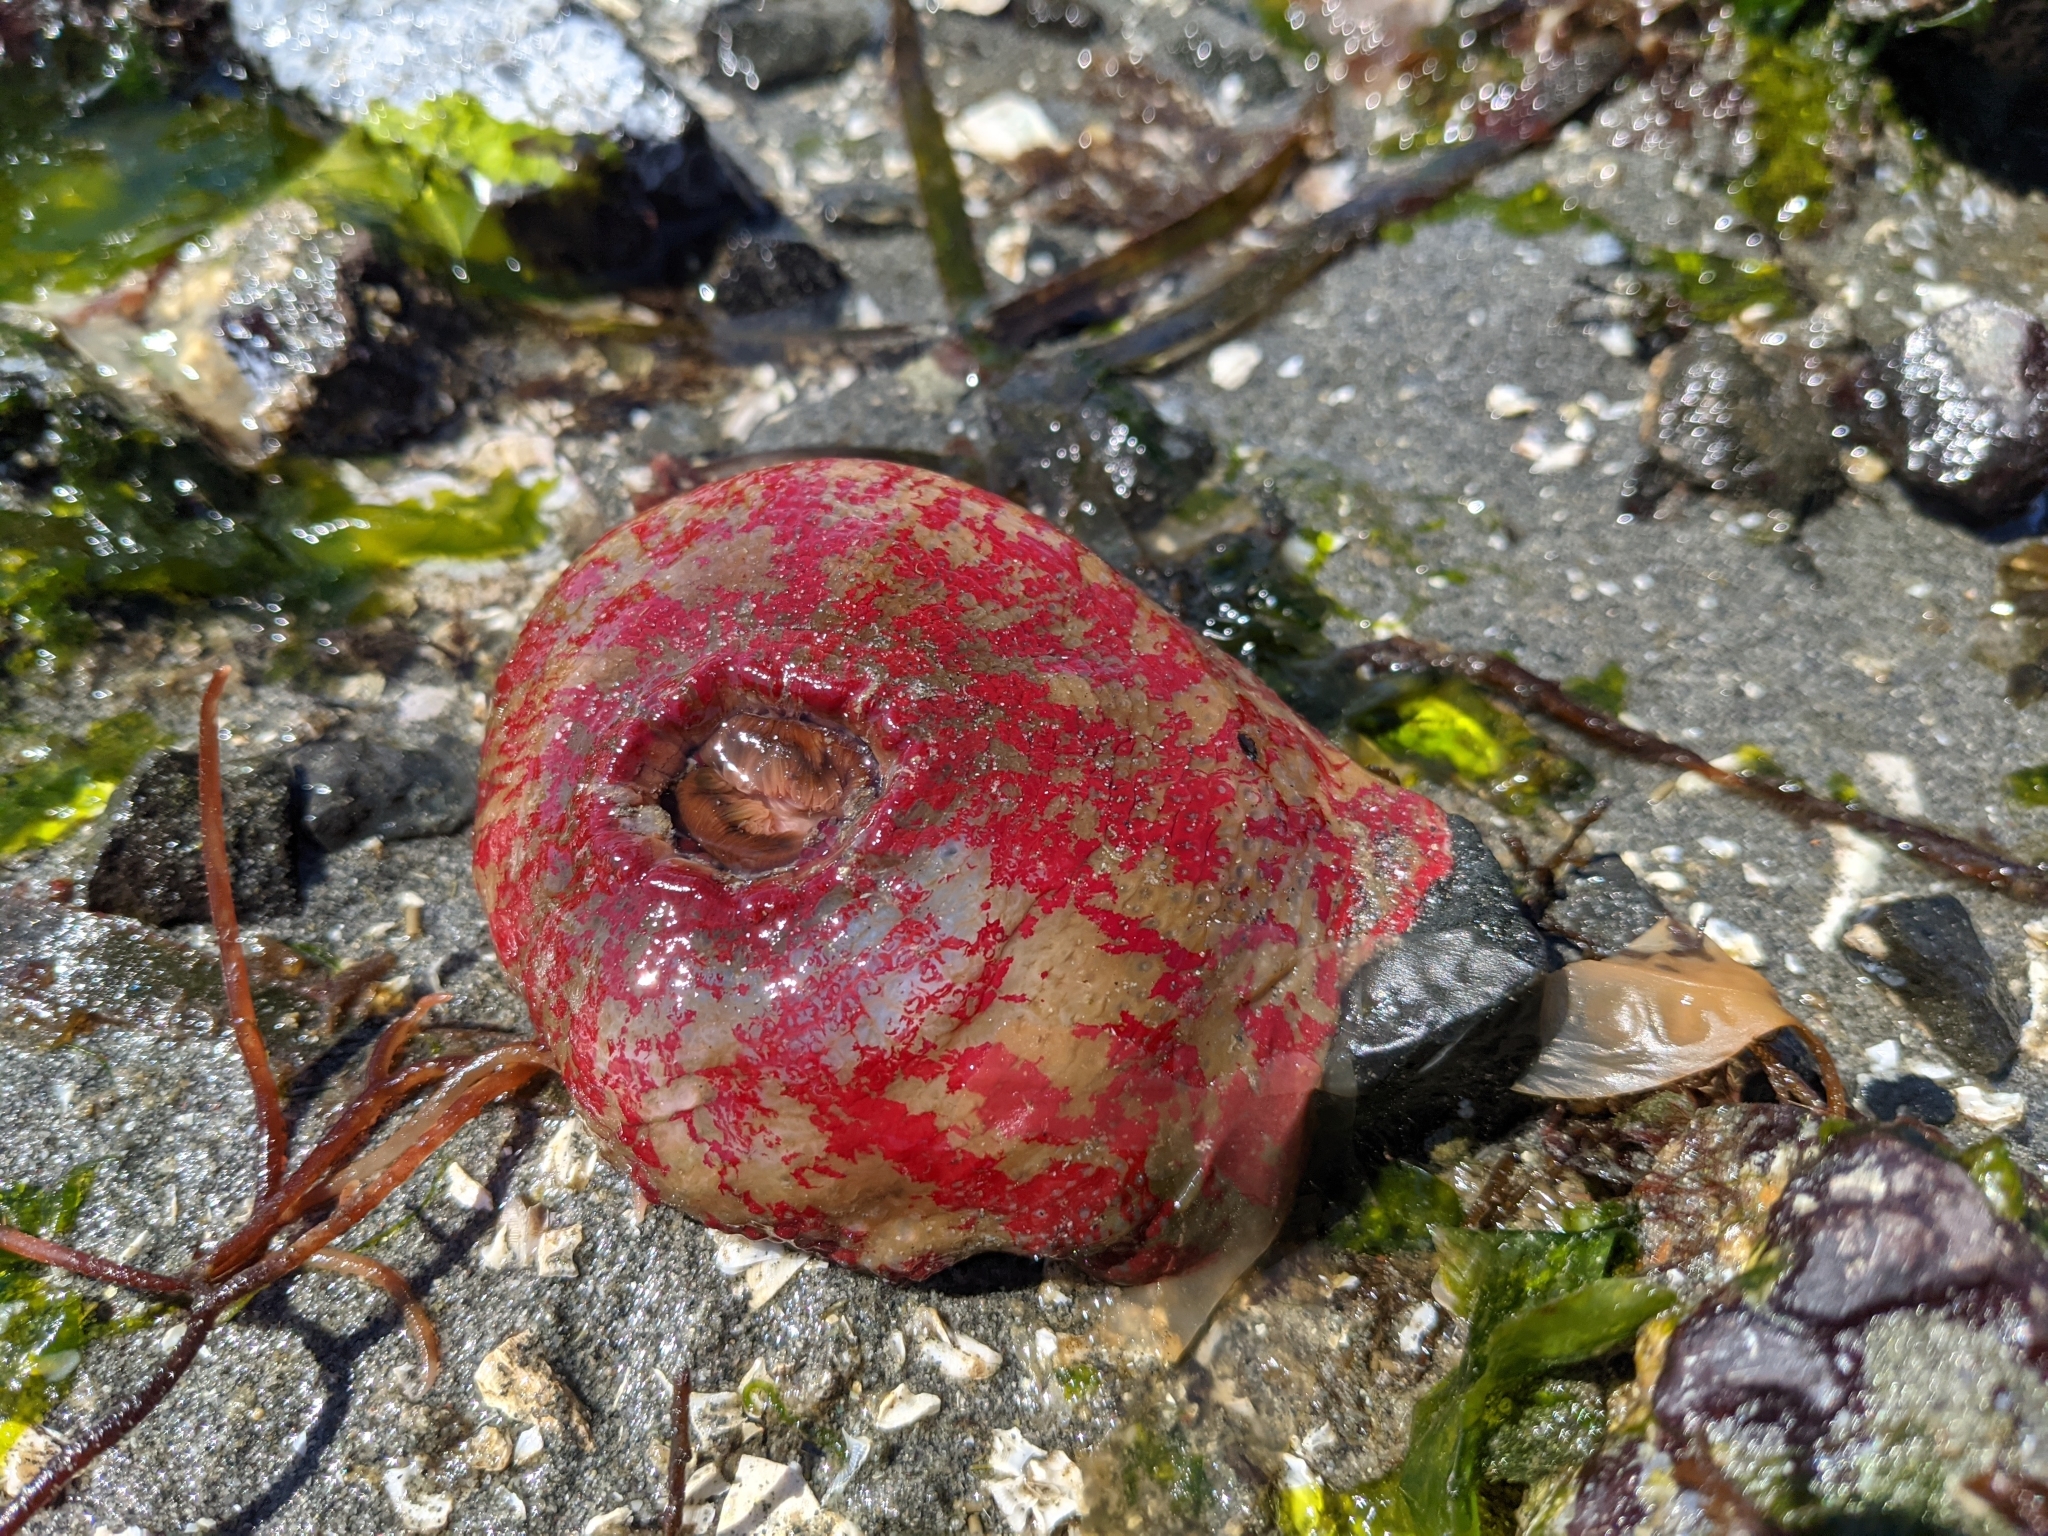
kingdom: Animalia
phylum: Cnidaria
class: Anthozoa
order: Actiniaria
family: Actiniidae
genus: Urticina
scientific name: Urticina grebelnyi
